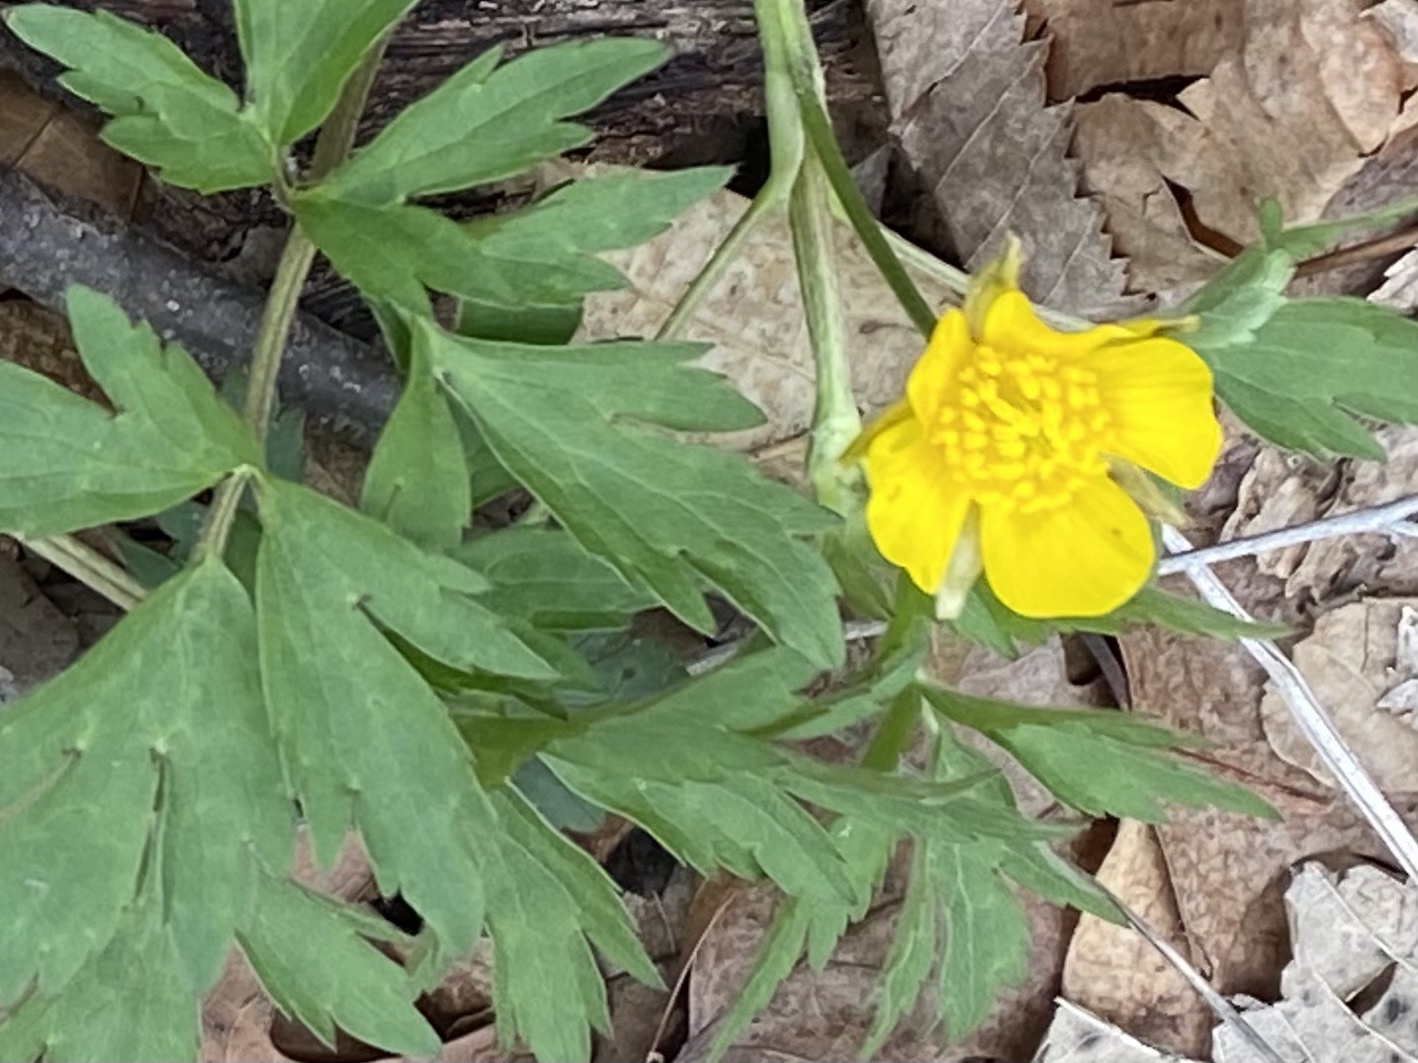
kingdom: Plantae
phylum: Tracheophyta
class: Magnoliopsida
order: Ranunculales
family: Ranunculaceae
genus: Ranunculus
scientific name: Ranunculus hispidus
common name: Bristly buttercup
